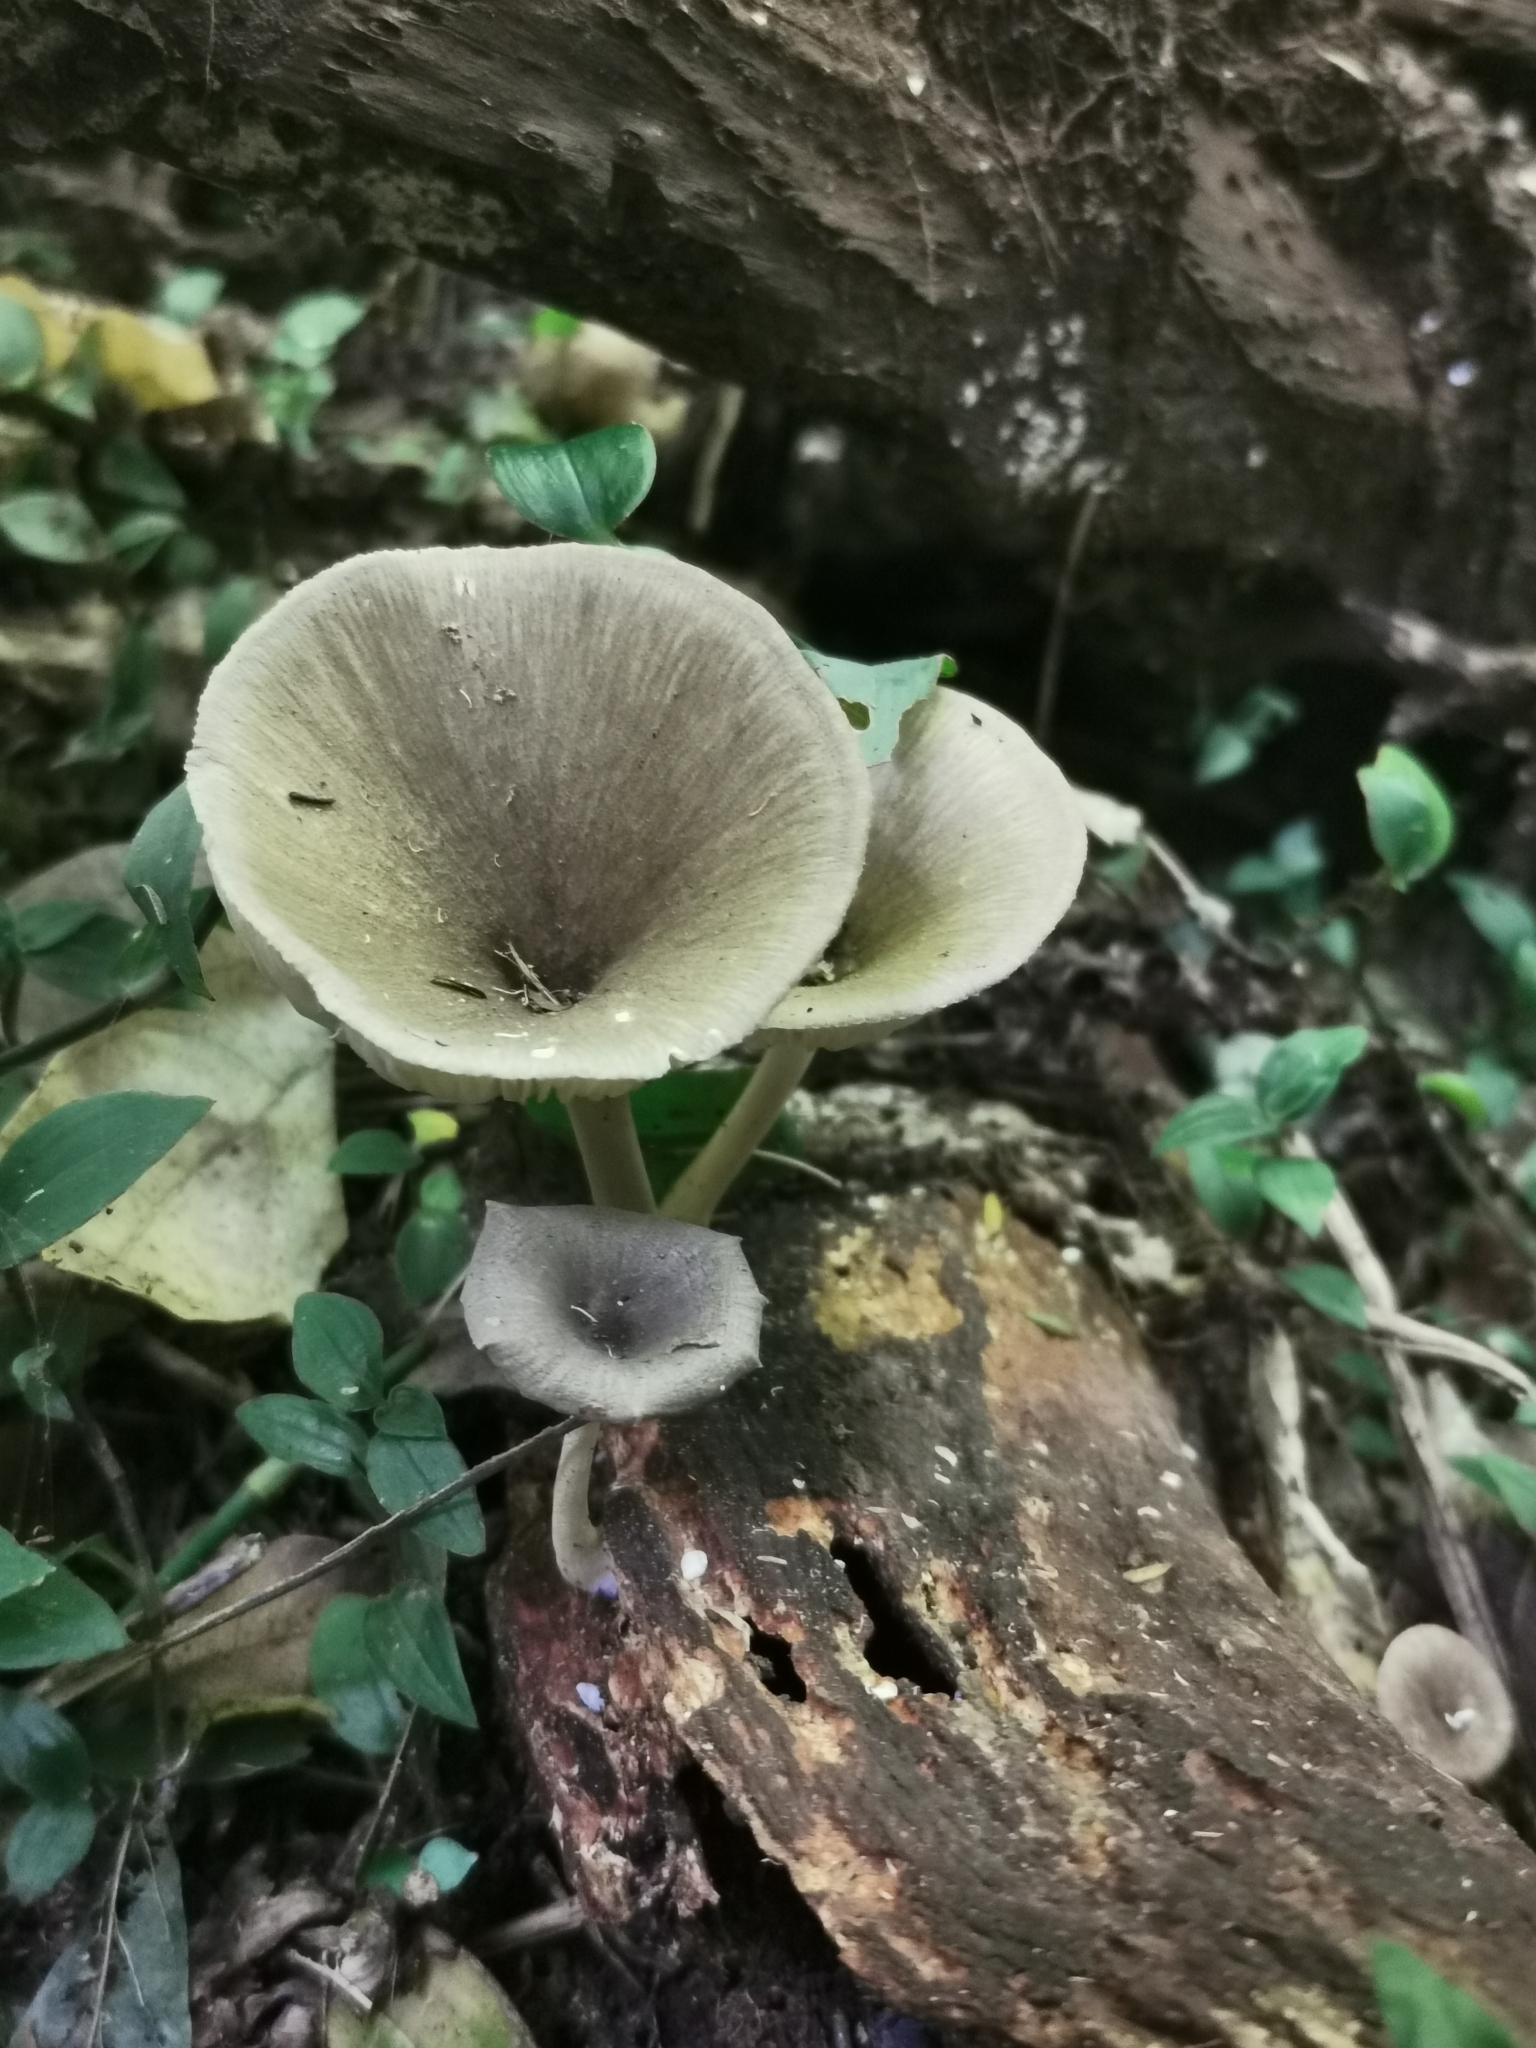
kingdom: Fungi
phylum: Basidiomycota
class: Agaricomycetes
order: Agaricales
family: Hygrophoraceae
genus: Pseudoarmillariella
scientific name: Pseudoarmillariella fistulosa
